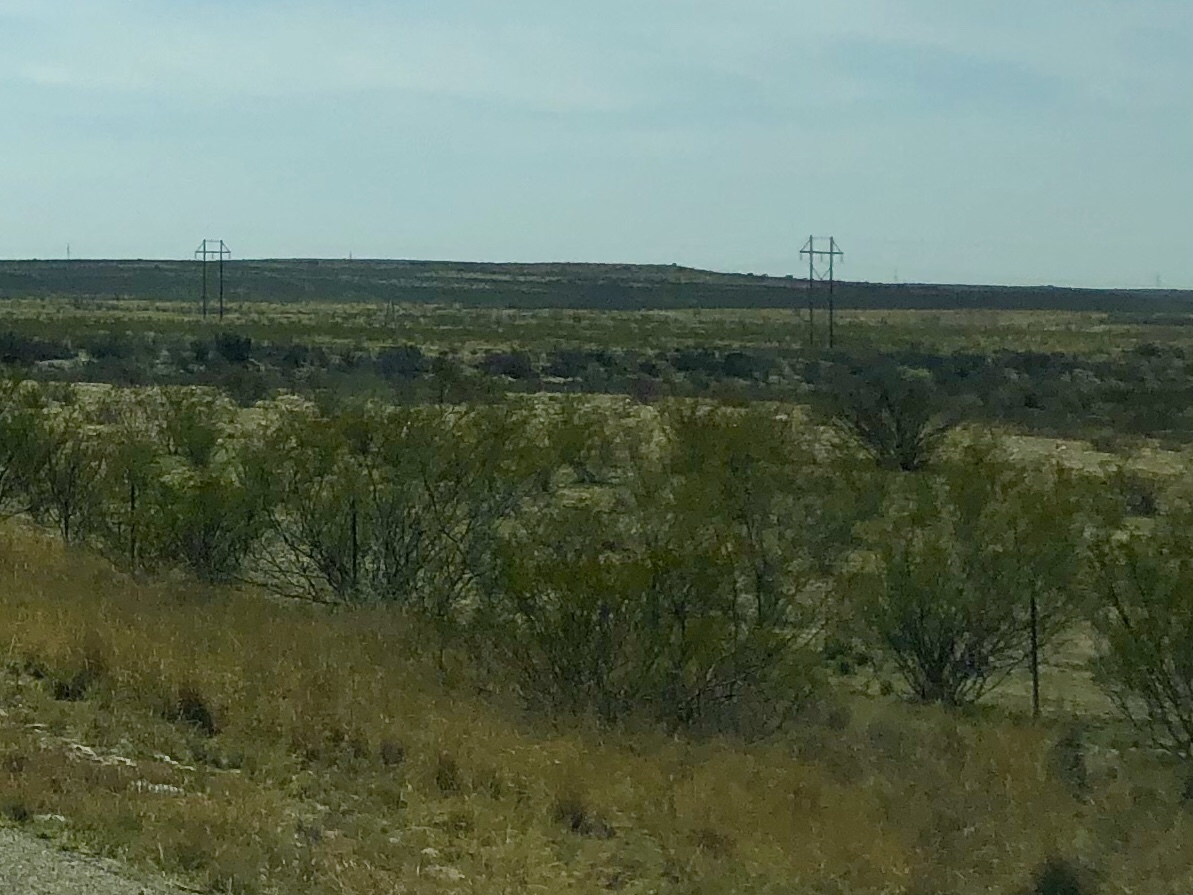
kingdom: Plantae
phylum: Tracheophyta
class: Magnoliopsida
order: Zygophyllales
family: Zygophyllaceae
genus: Larrea
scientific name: Larrea tridentata
